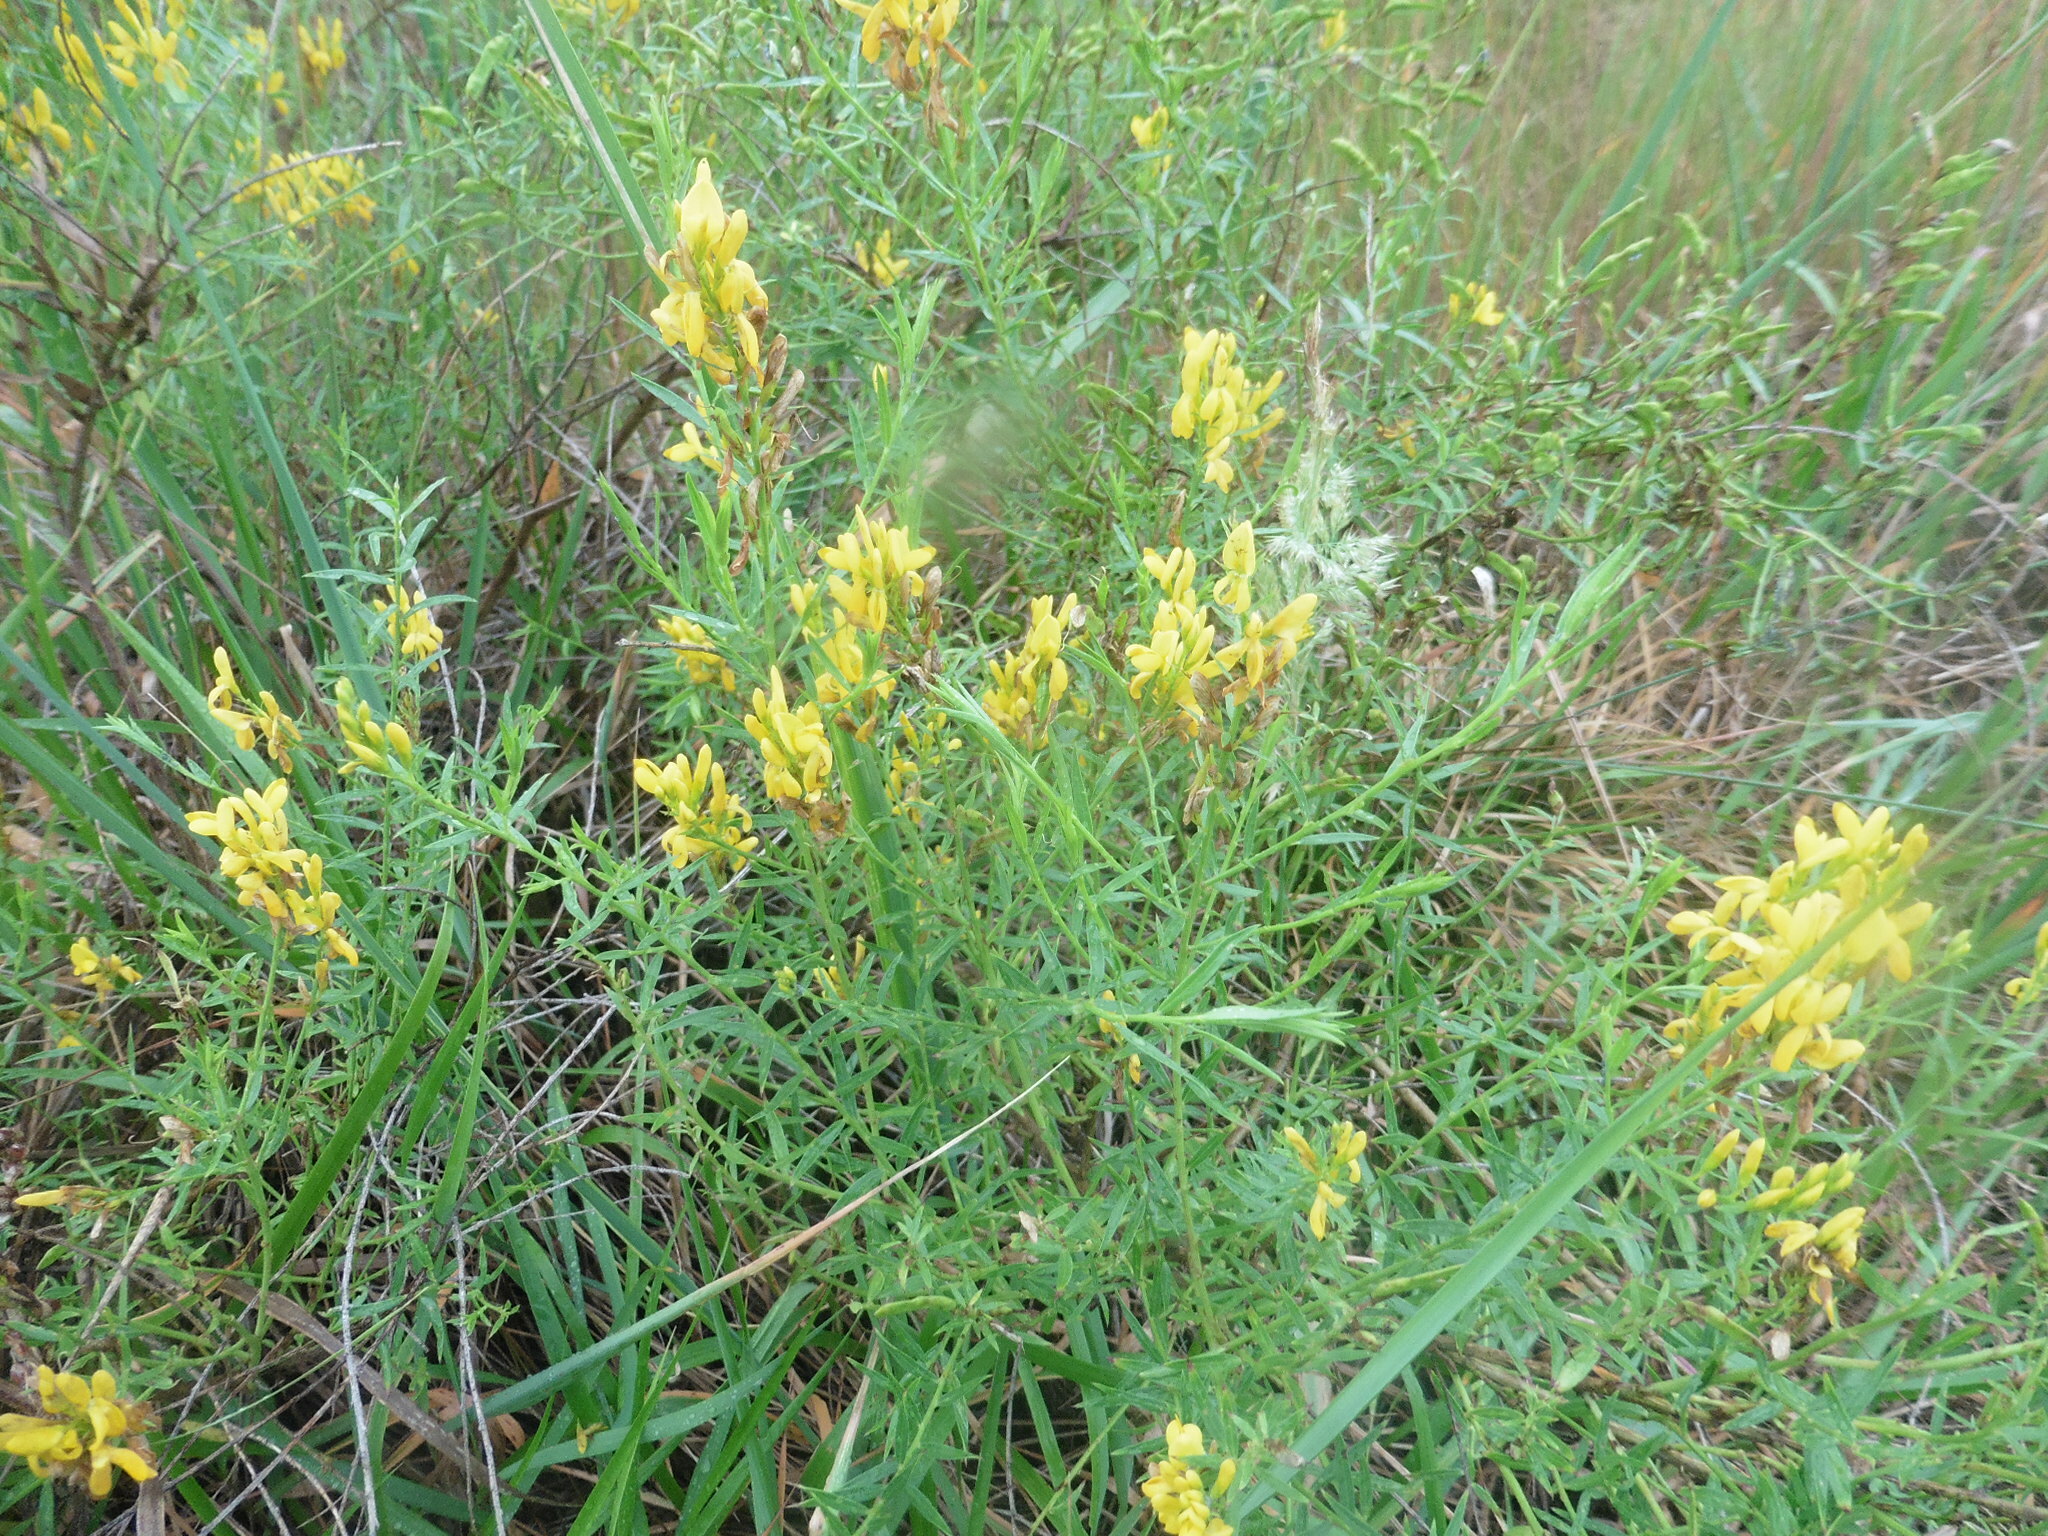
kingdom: Plantae
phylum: Tracheophyta
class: Magnoliopsida
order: Fabales
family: Fabaceae
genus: Genista
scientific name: Genista tinctoria
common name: Dyer's greenweed
